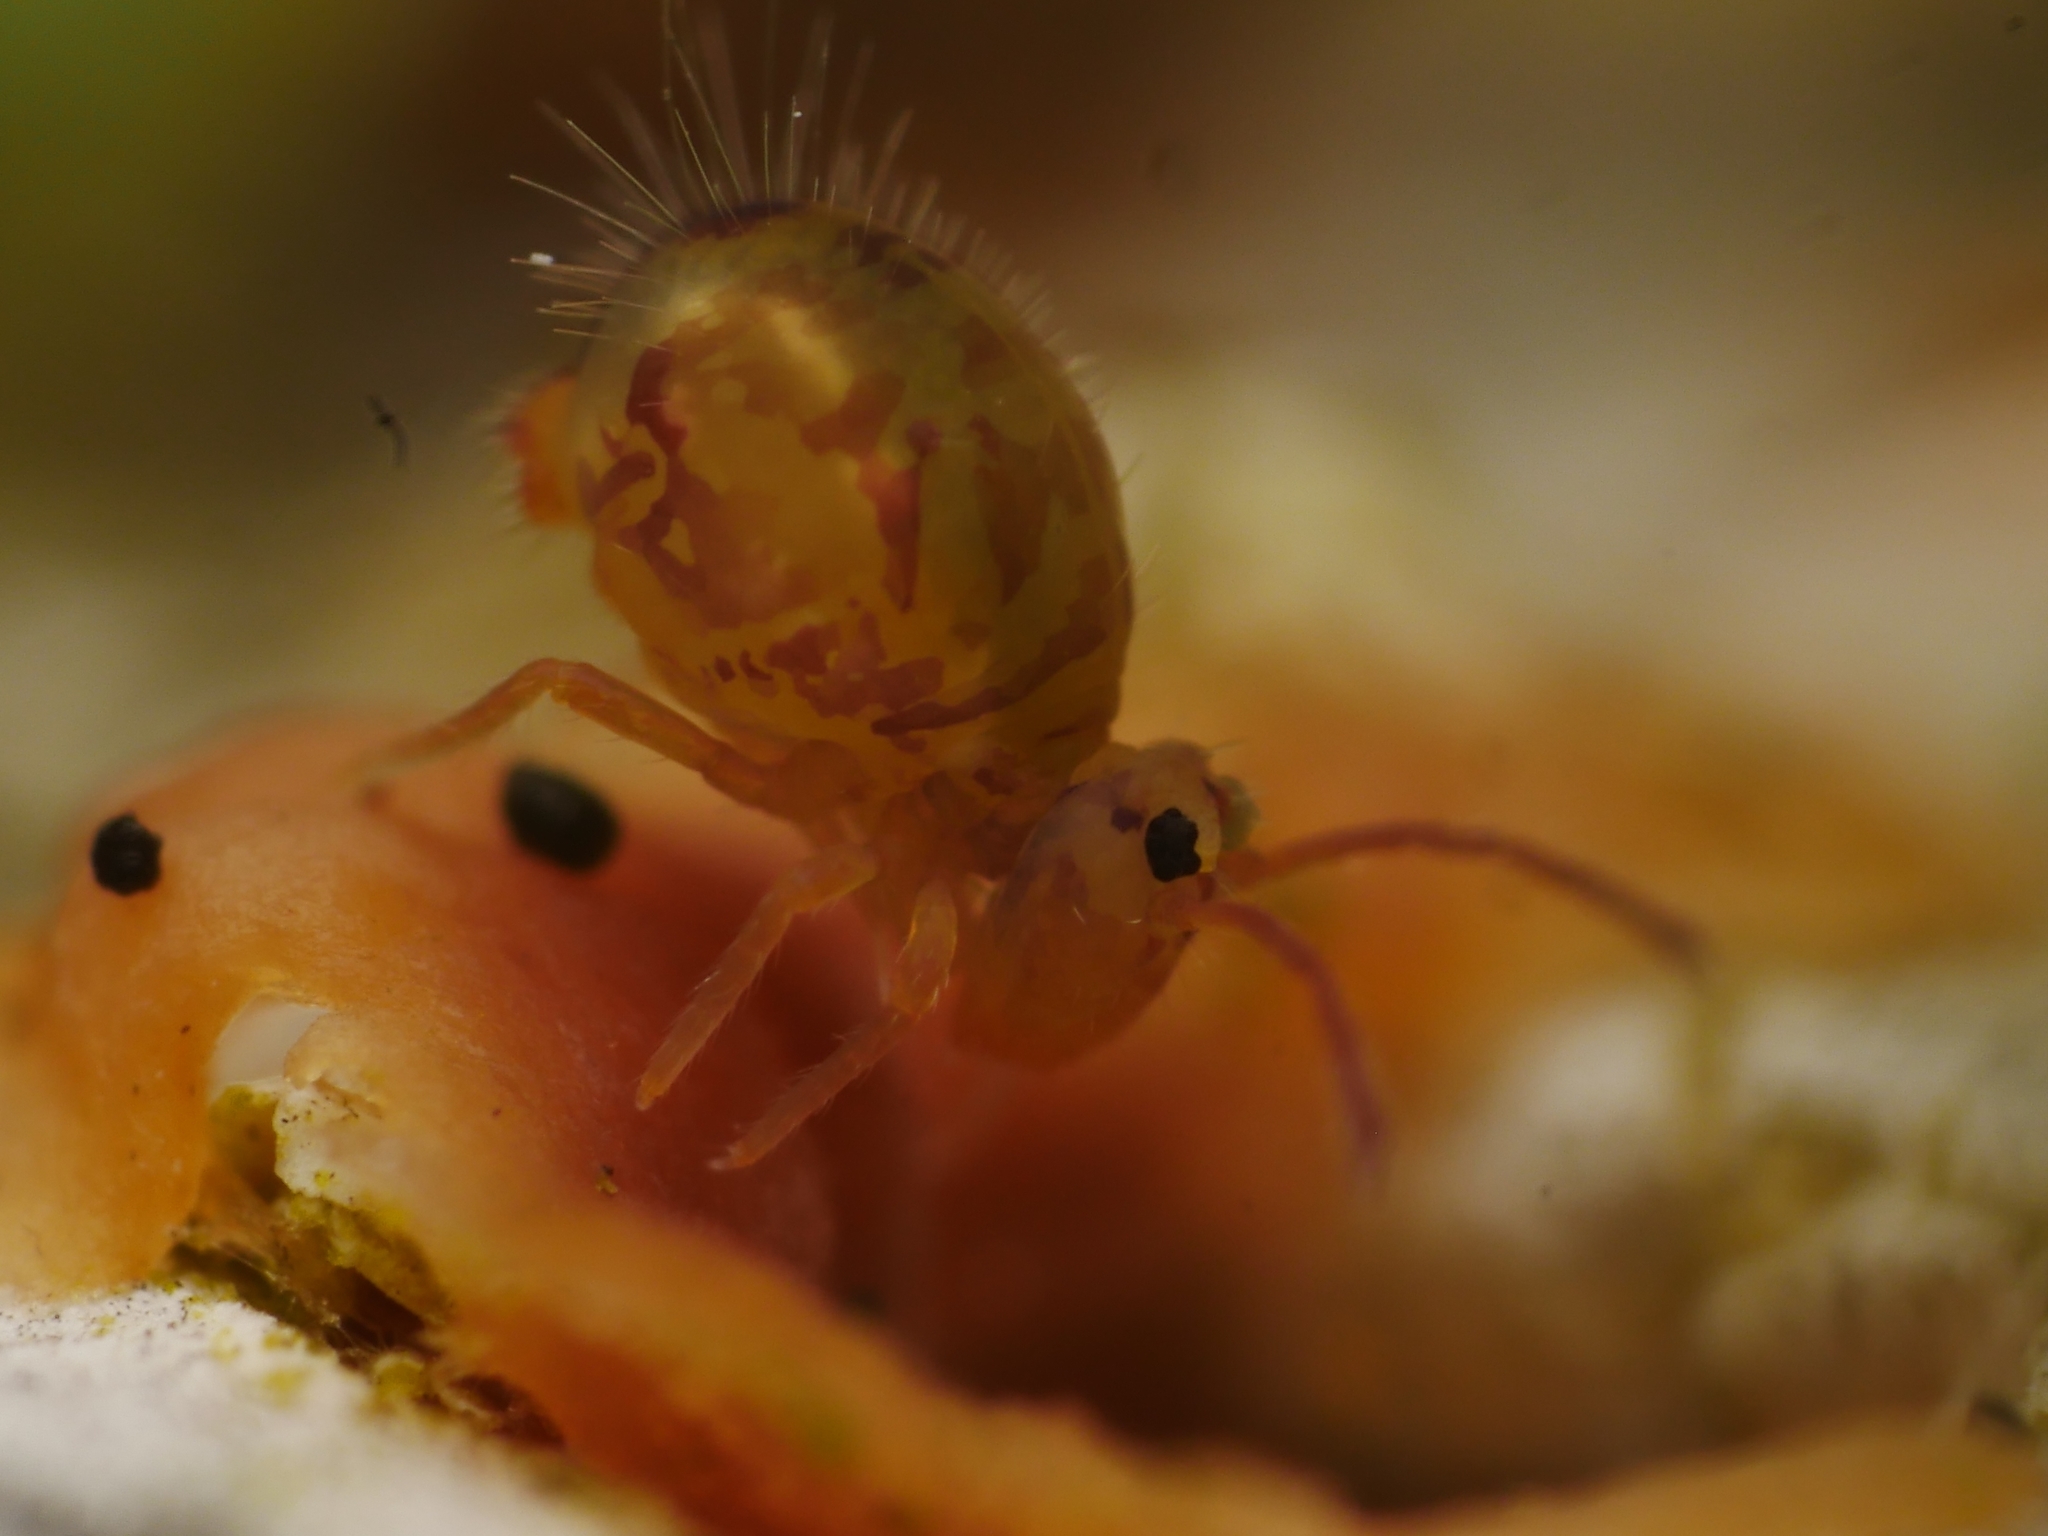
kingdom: Animalia
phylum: Arthropoda
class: Collembola
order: Symphypleona
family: Dicyrtomidae
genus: Dicyrtomina
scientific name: Dicyrtomina ornata
